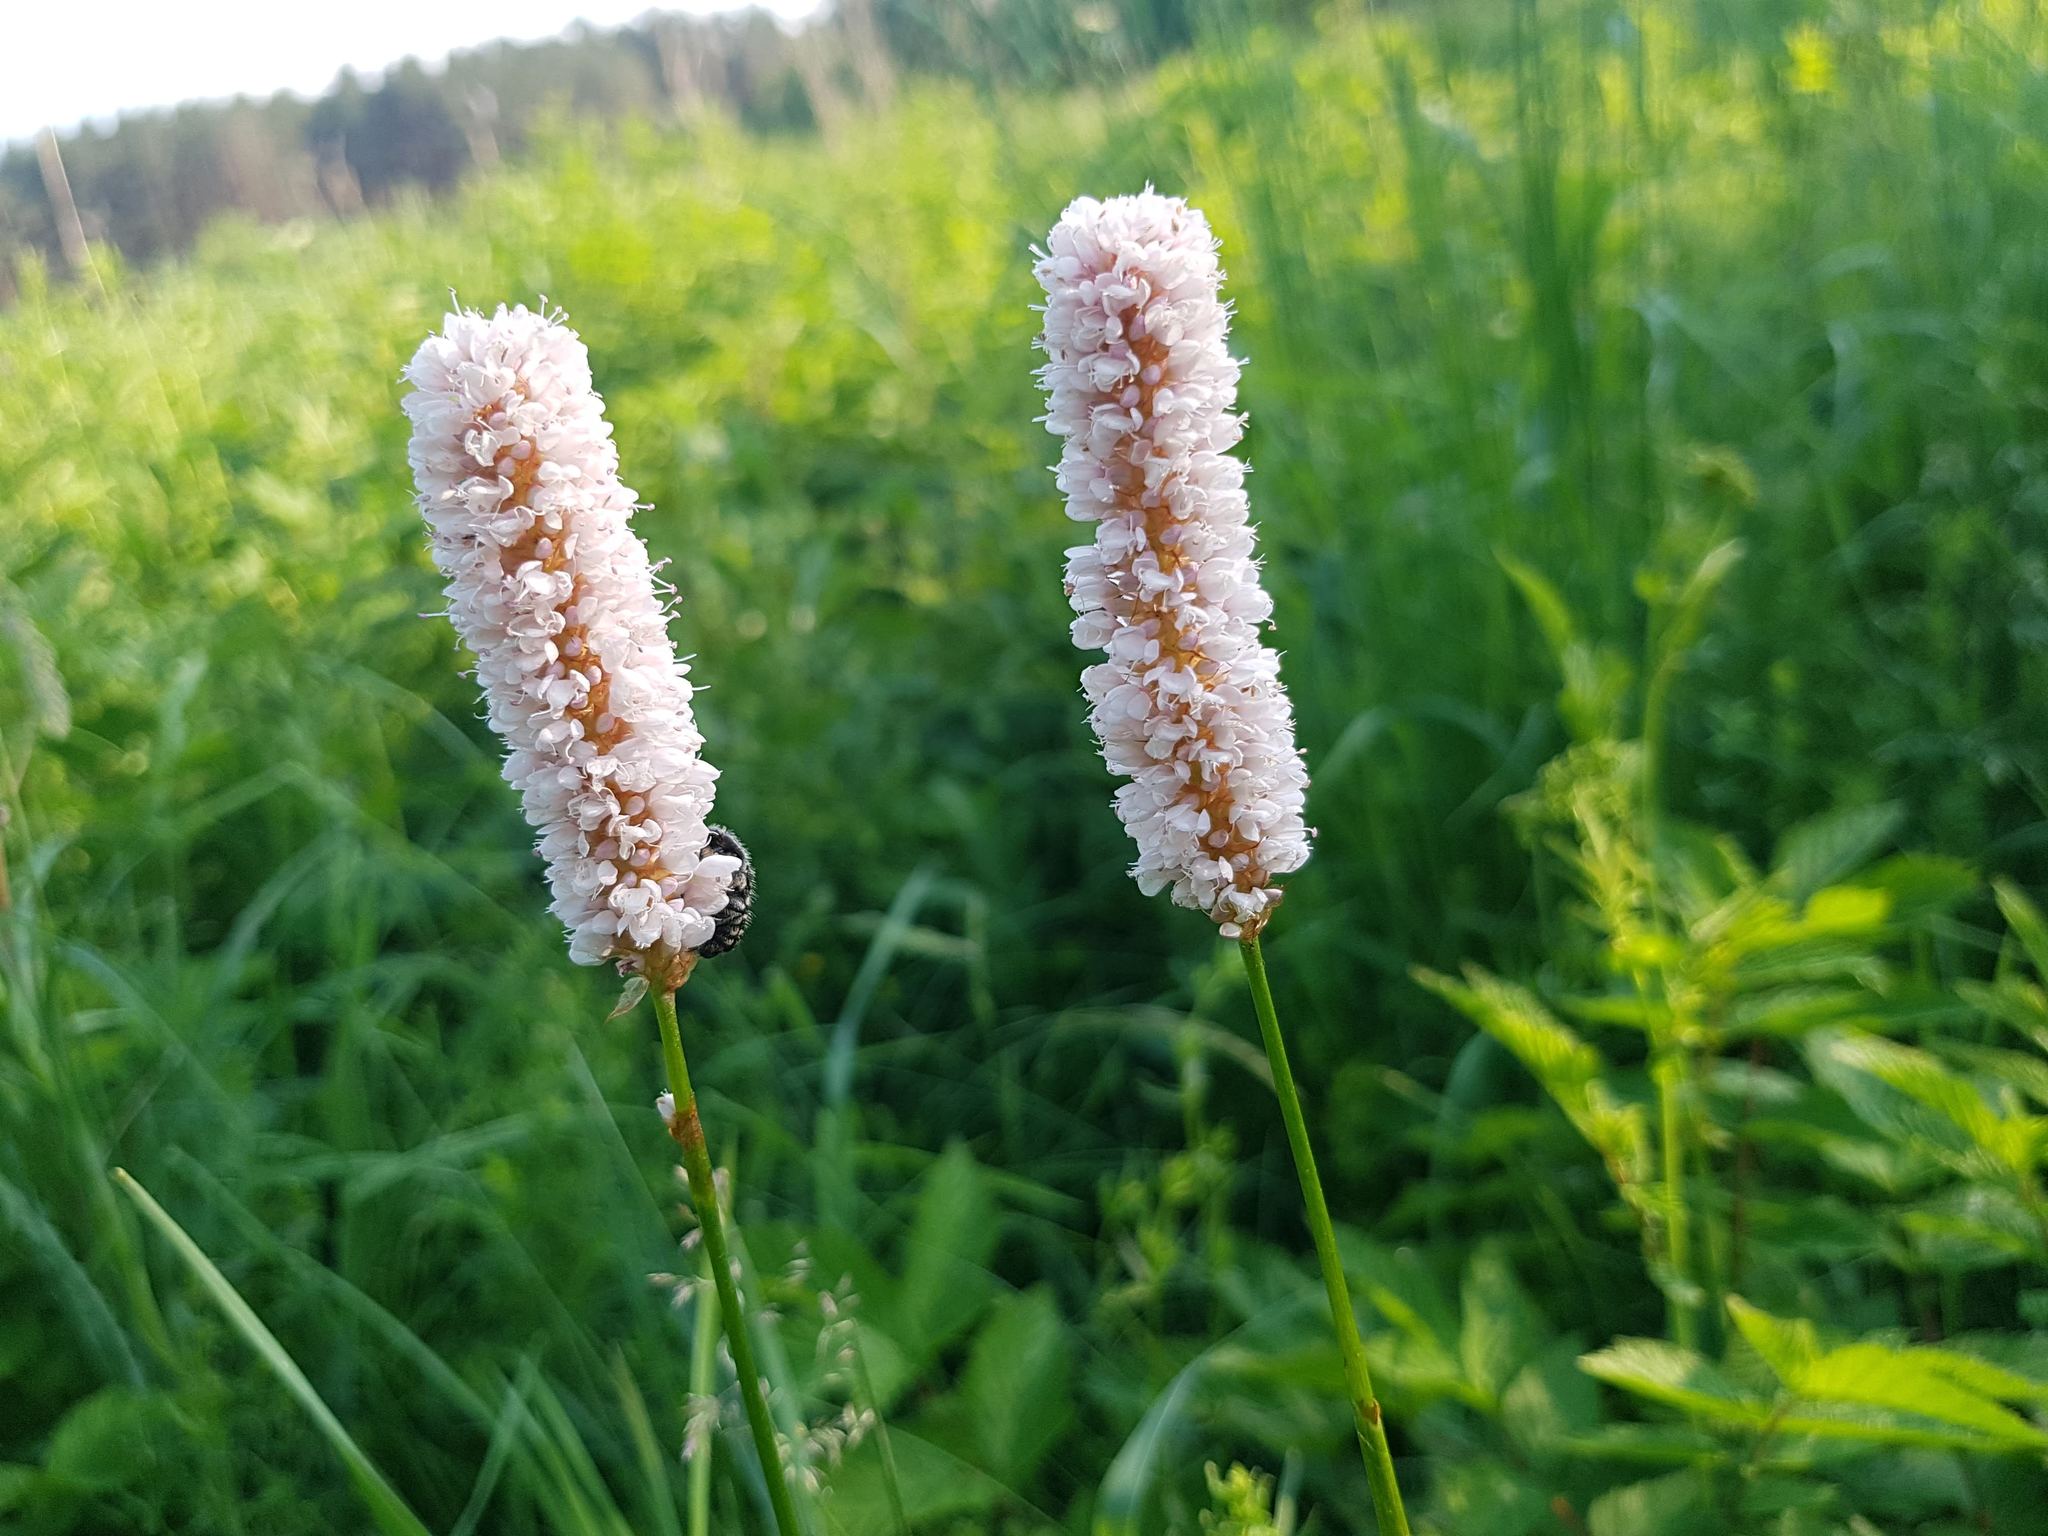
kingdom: Plantae
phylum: Tracheophyta
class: Magnoliopsida
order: Caryophyllales
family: Polygonaceae
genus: Bistorta
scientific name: Bistorta officinalis
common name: Common bistort
